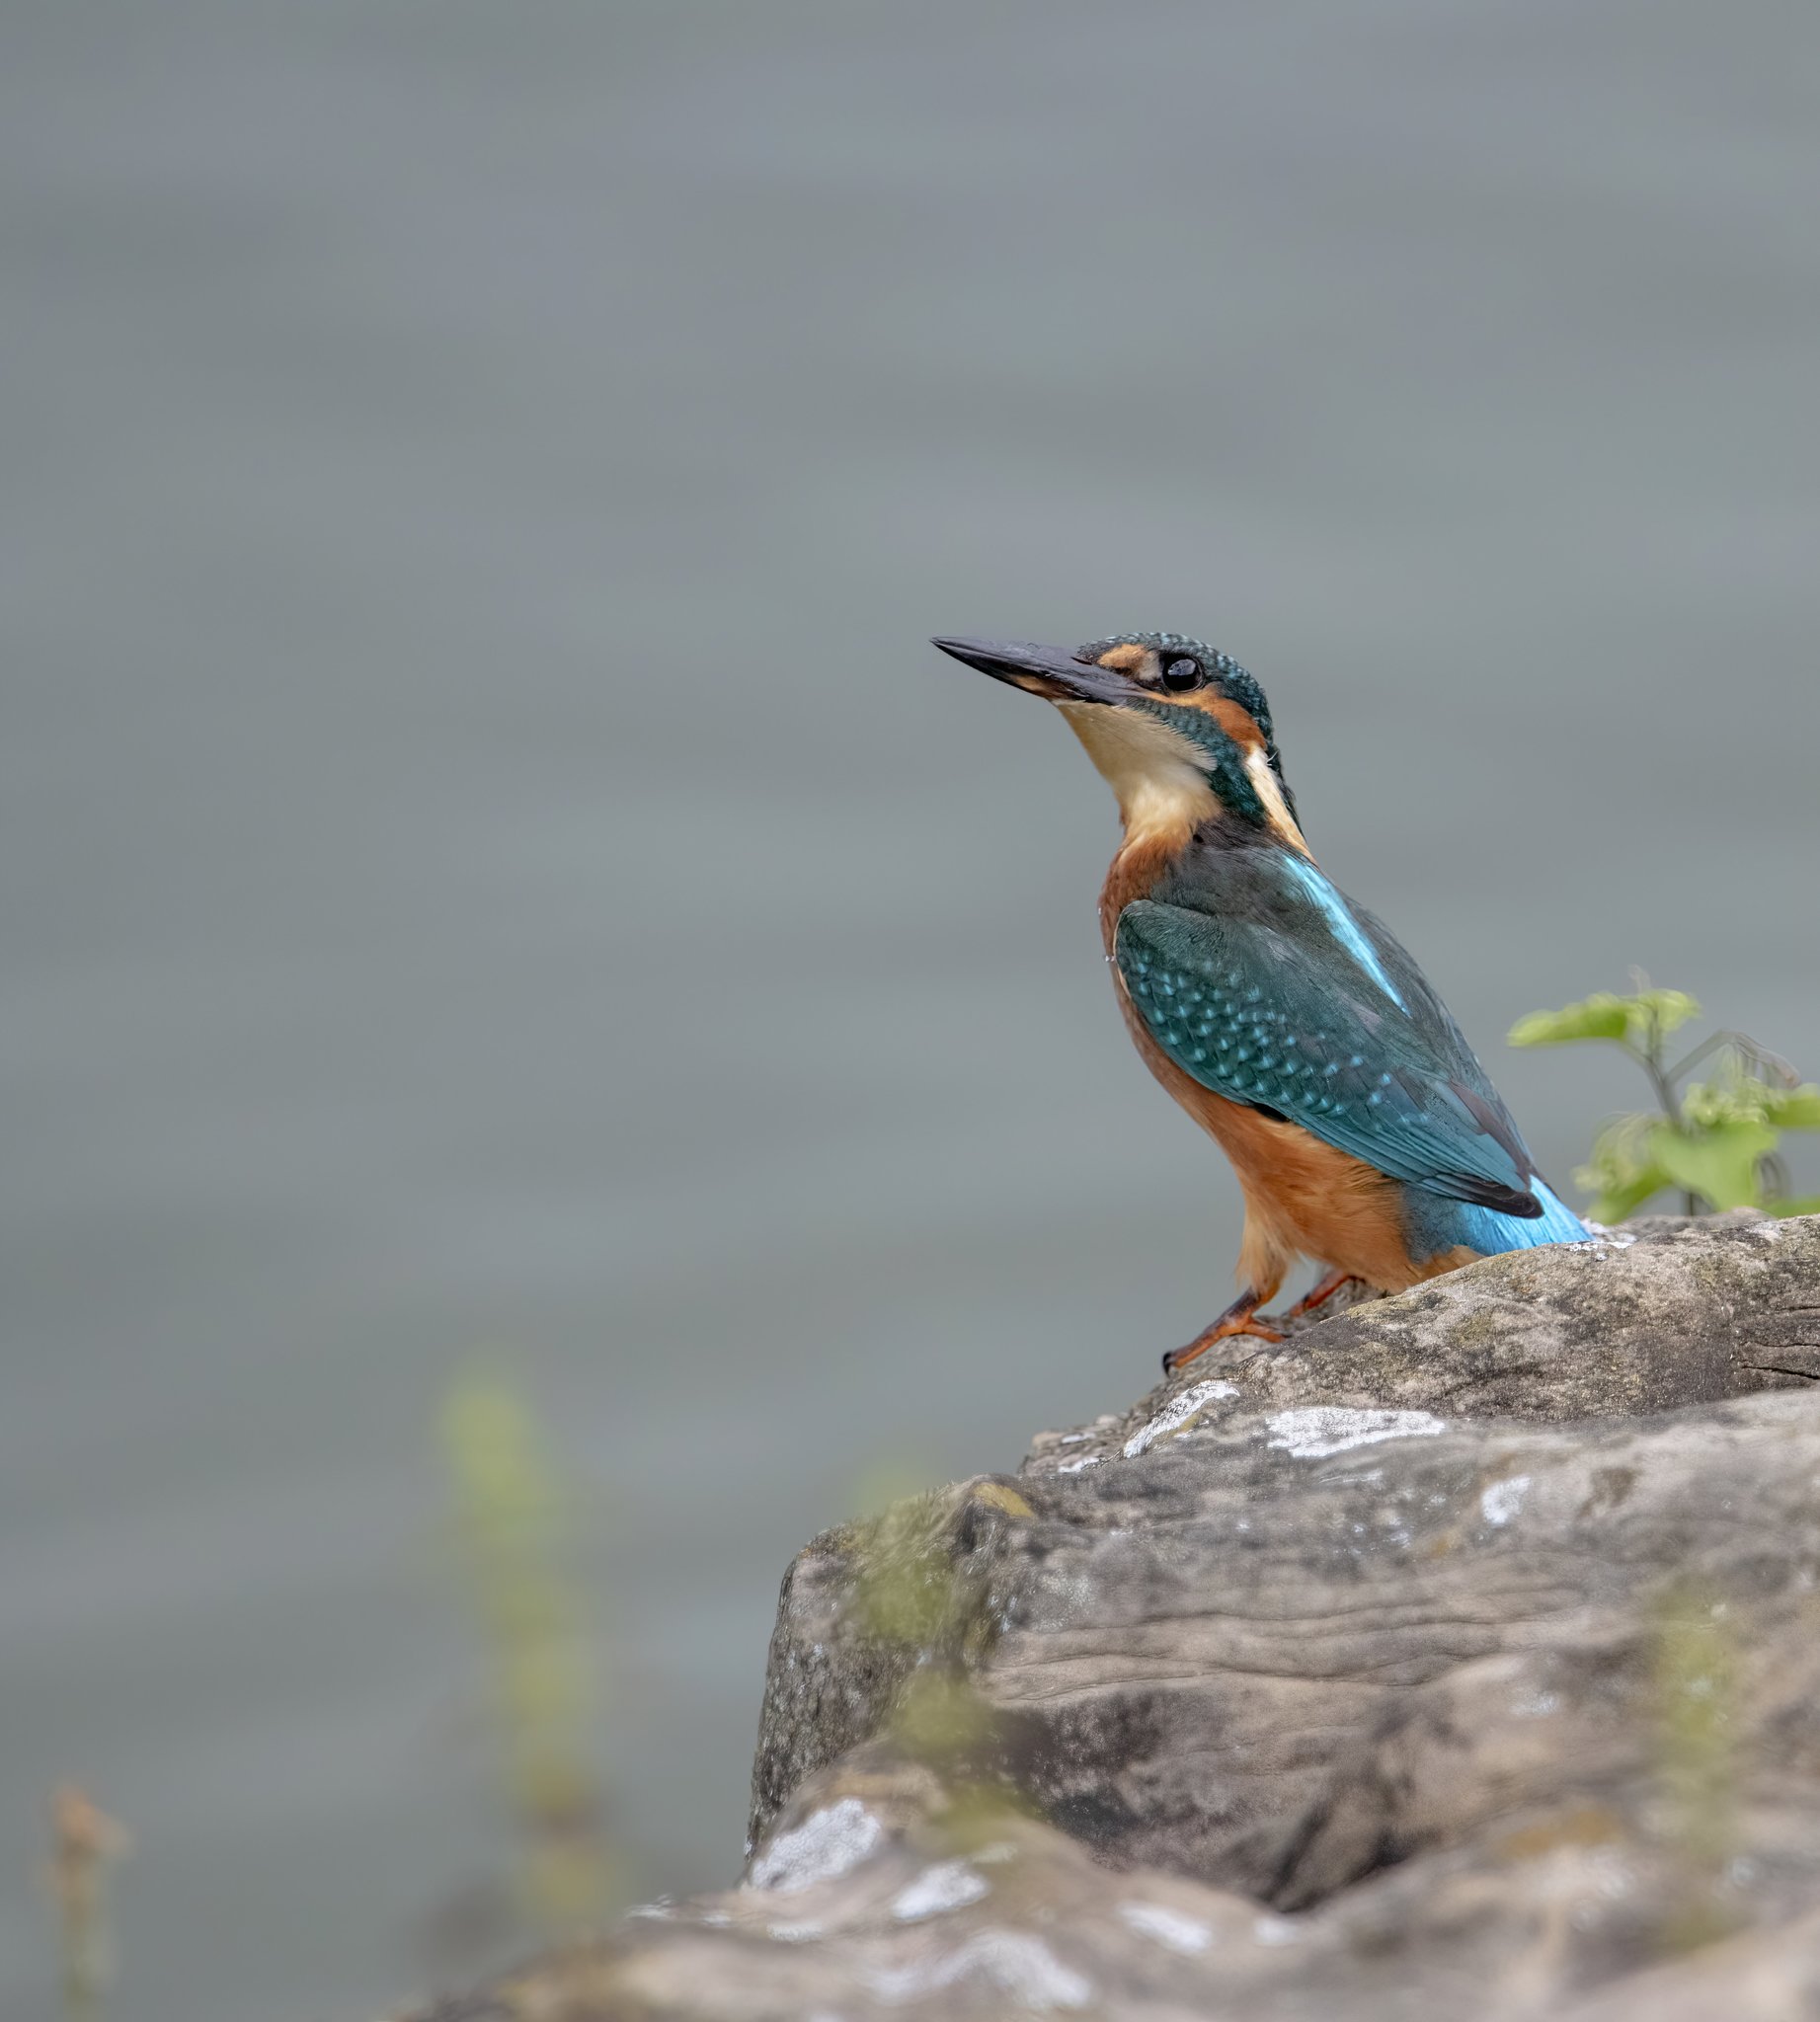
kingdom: Animalia
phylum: Chordata
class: Aves
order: Coraciiformes
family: Alcedinidae
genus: Alcedo
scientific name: Alcedo atthis
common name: Common kingfisher
